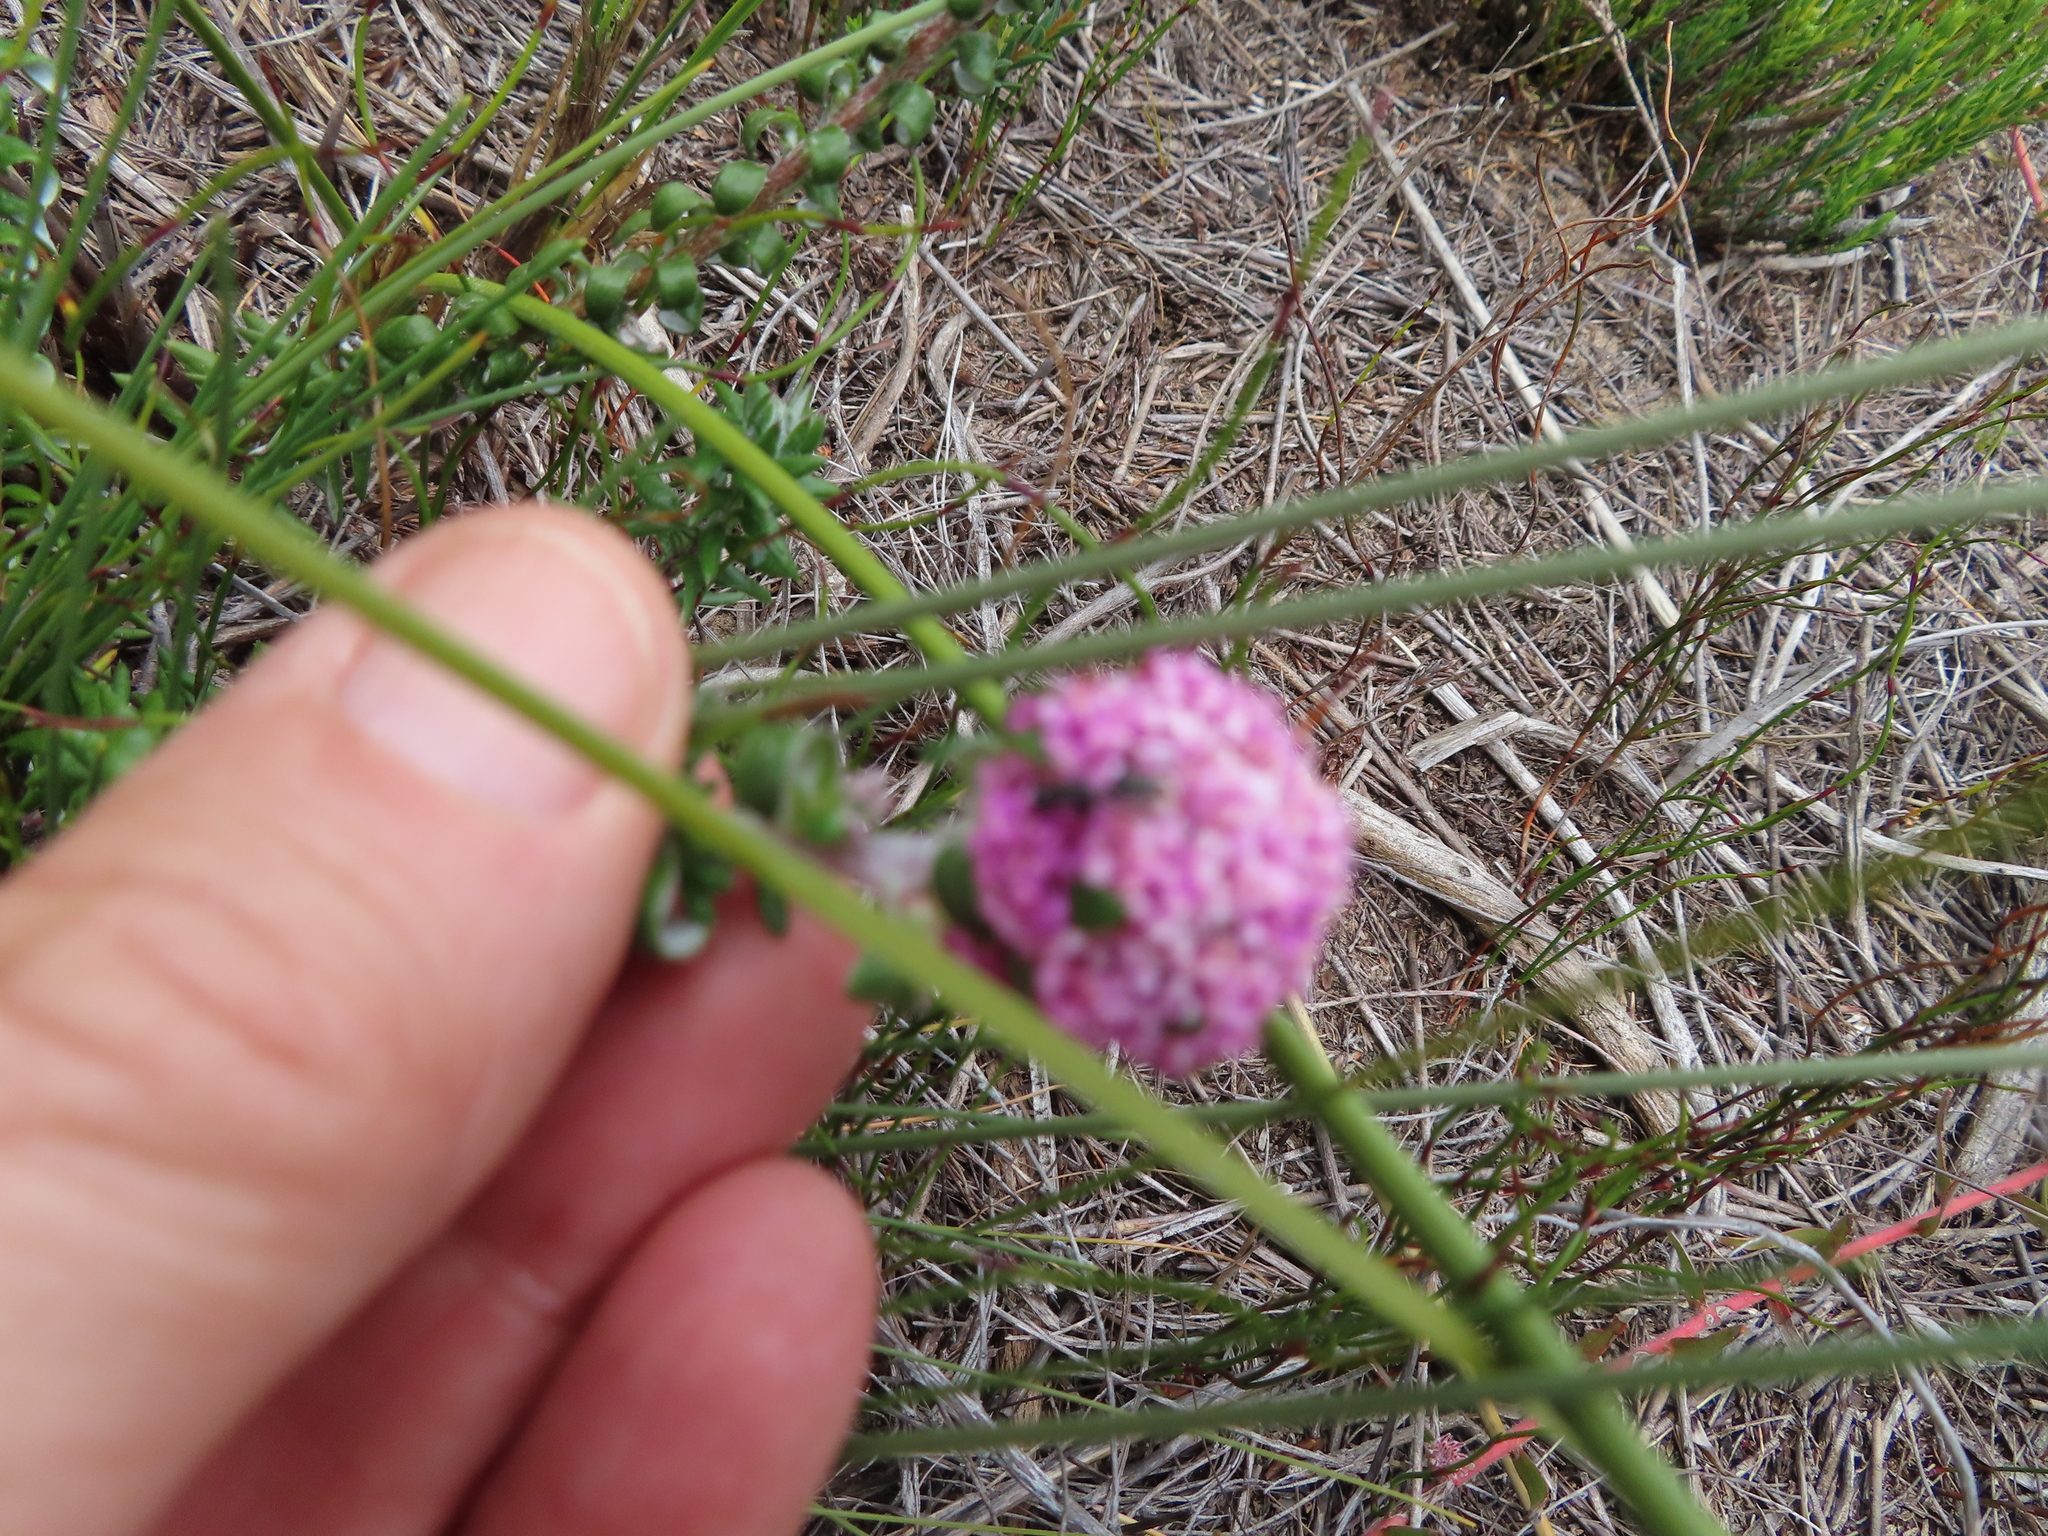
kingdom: Plantae
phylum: Tracheophyta
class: Magnoliopsida
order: Asterales
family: Asteraceae
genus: Stoebe
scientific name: Stoebe cyathuloides
